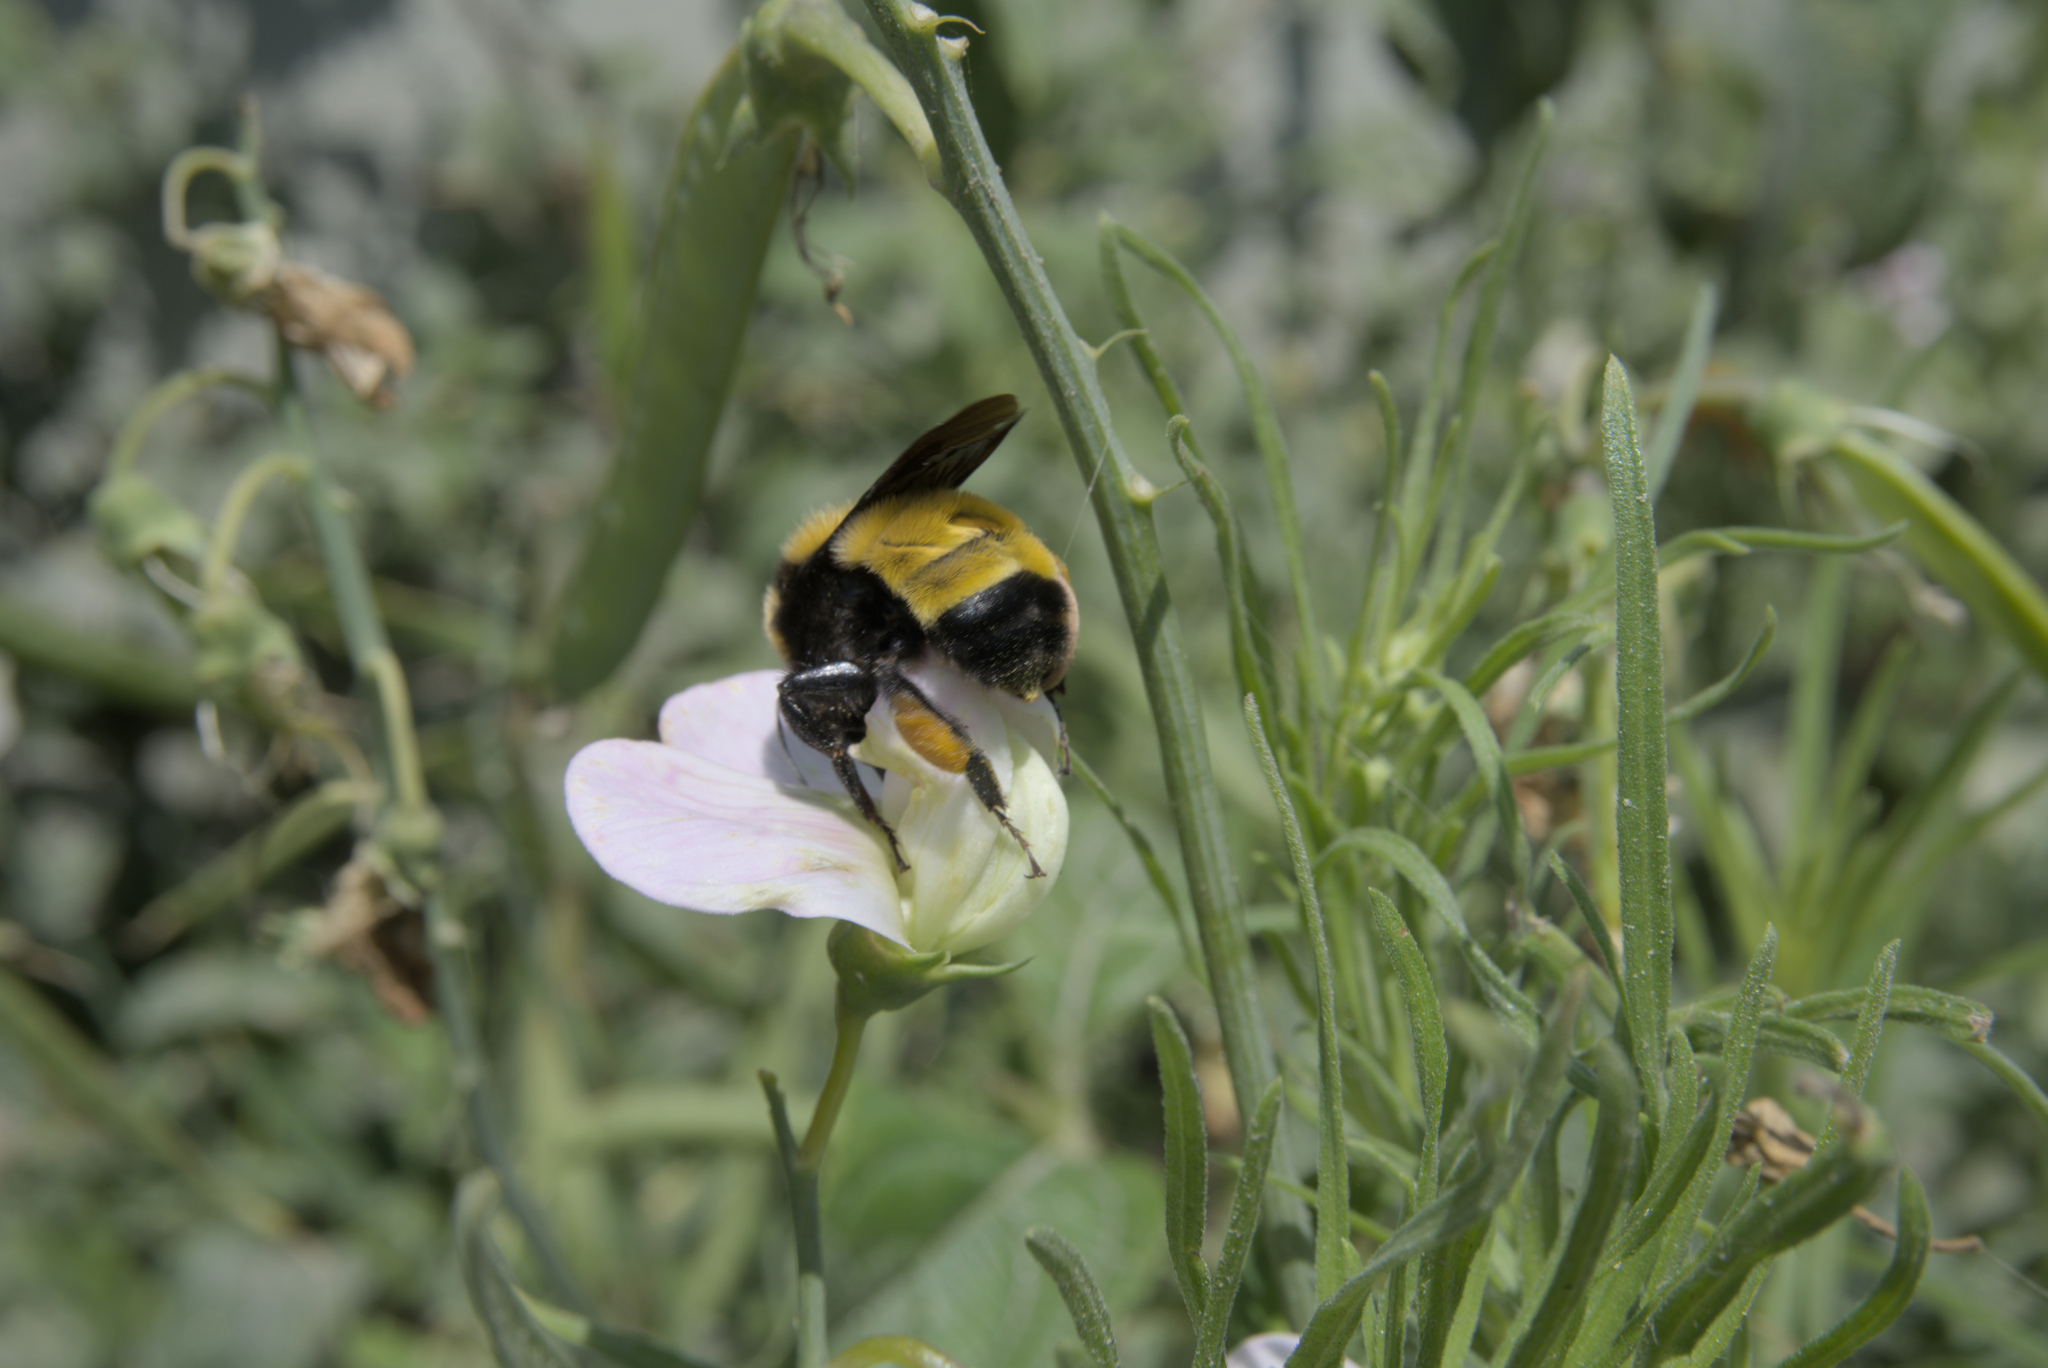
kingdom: Animalia
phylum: Arthropoda
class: Insecta
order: Hymenoptera
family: Apidae
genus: Bombus
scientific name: Bombus sonorus
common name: Sonoran bumble bee
